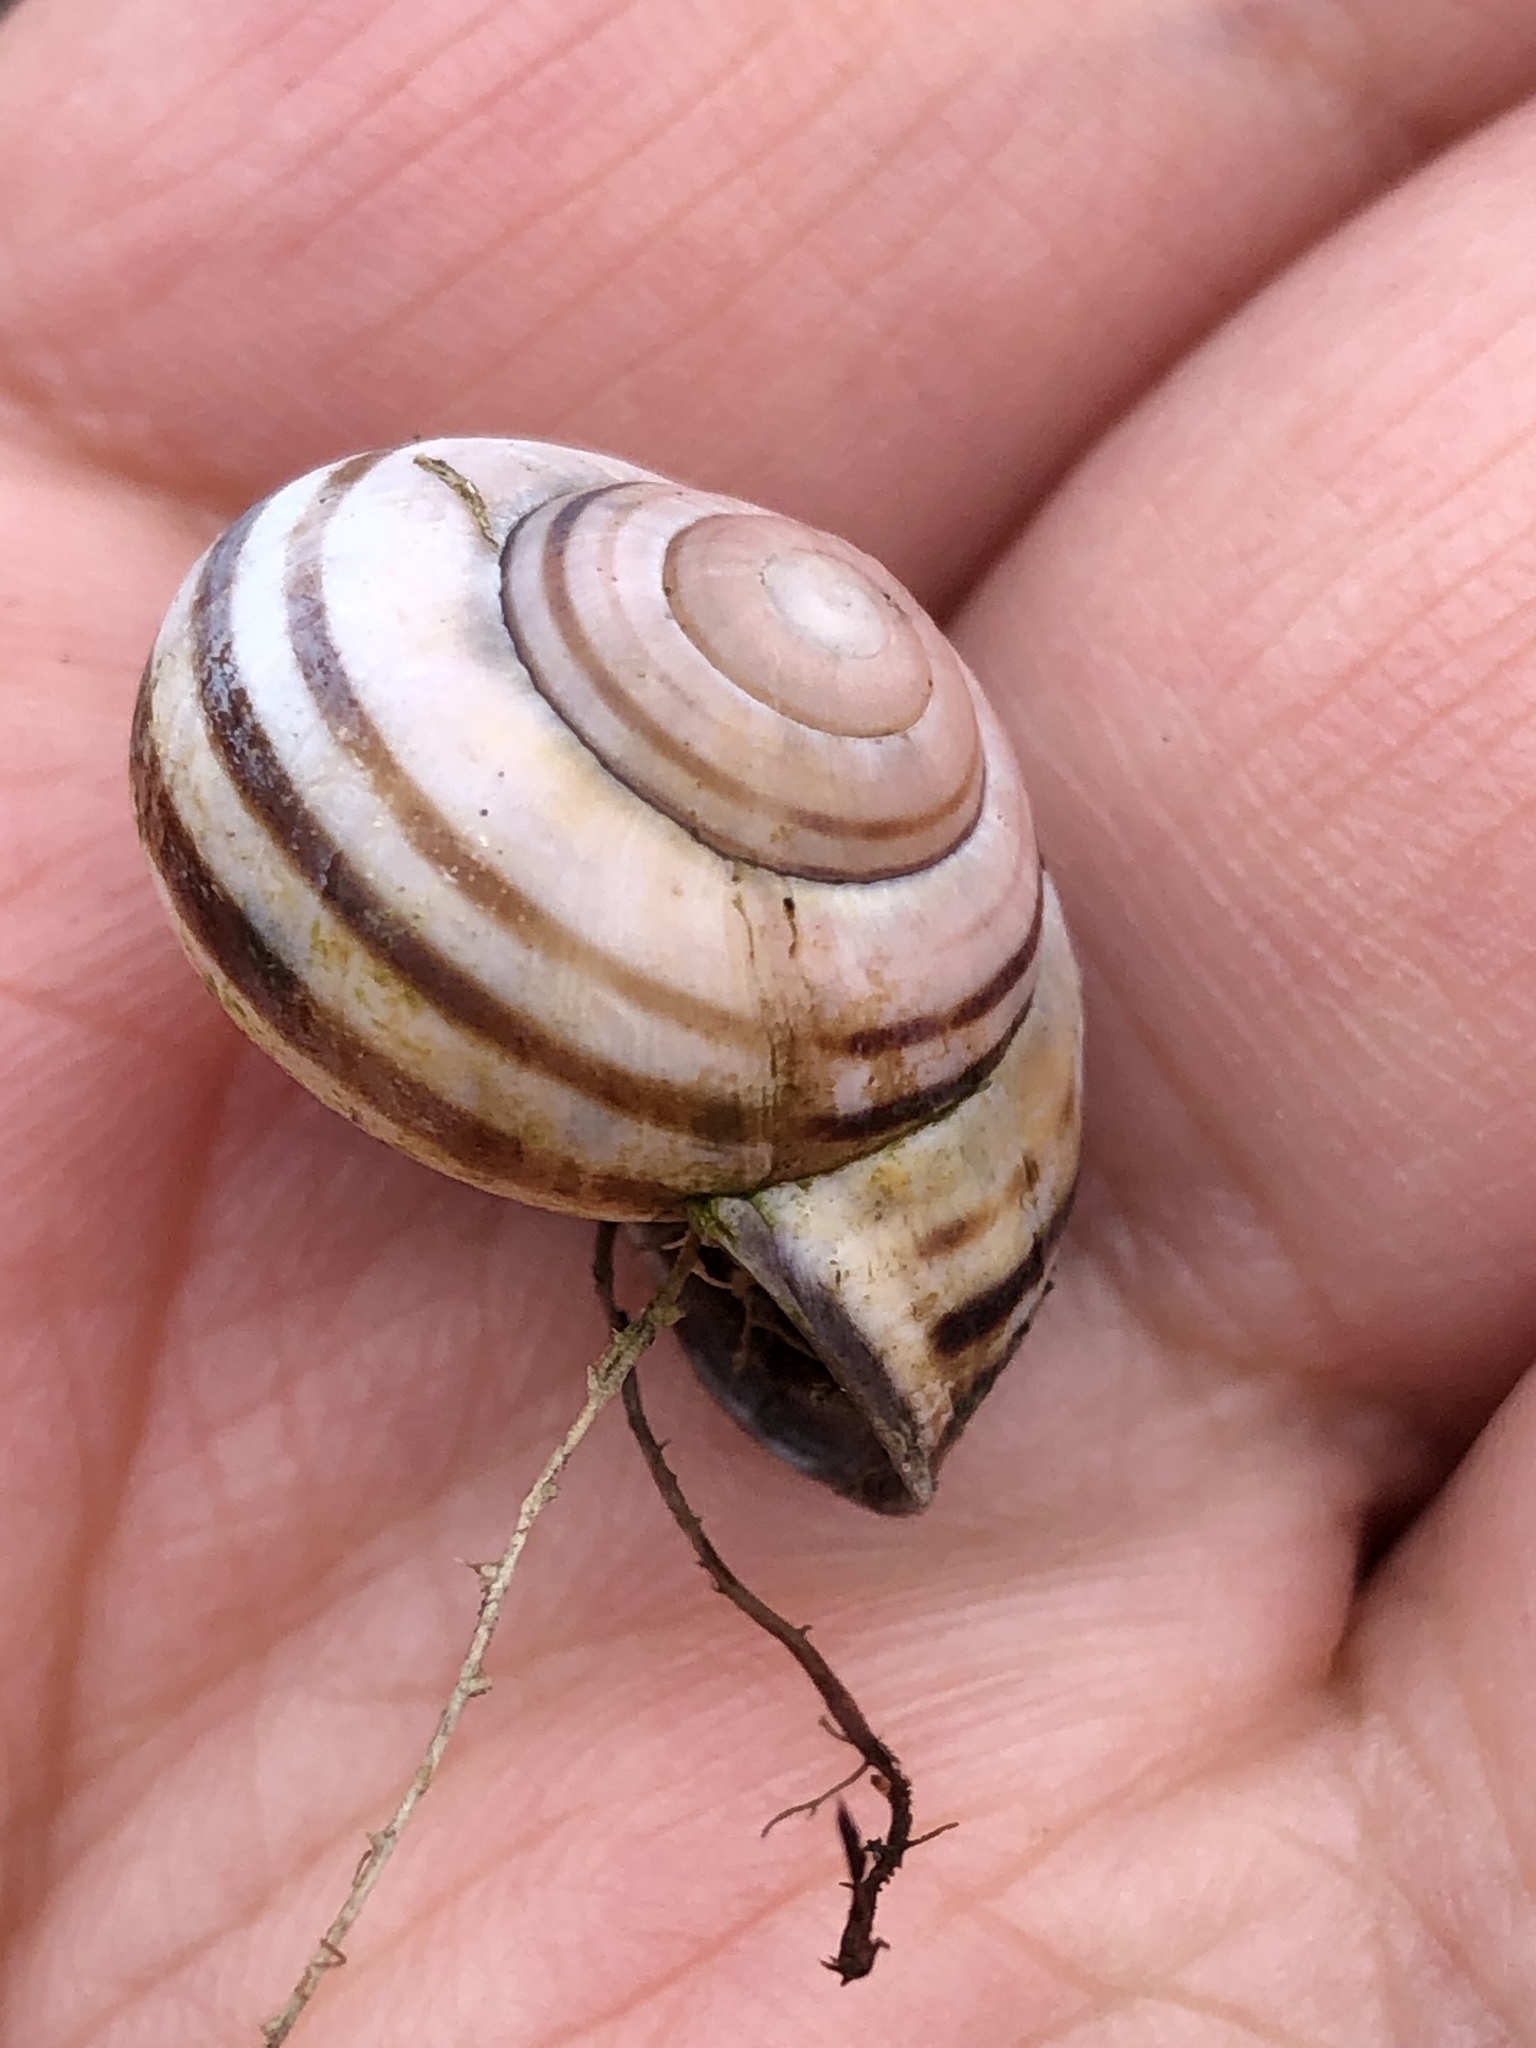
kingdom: Animalia
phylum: Mollusca
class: Gastropoda
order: Stylommatophora
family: Helicidae
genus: Cepaea
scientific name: Cepaea nemoralis
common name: Grovesnail
